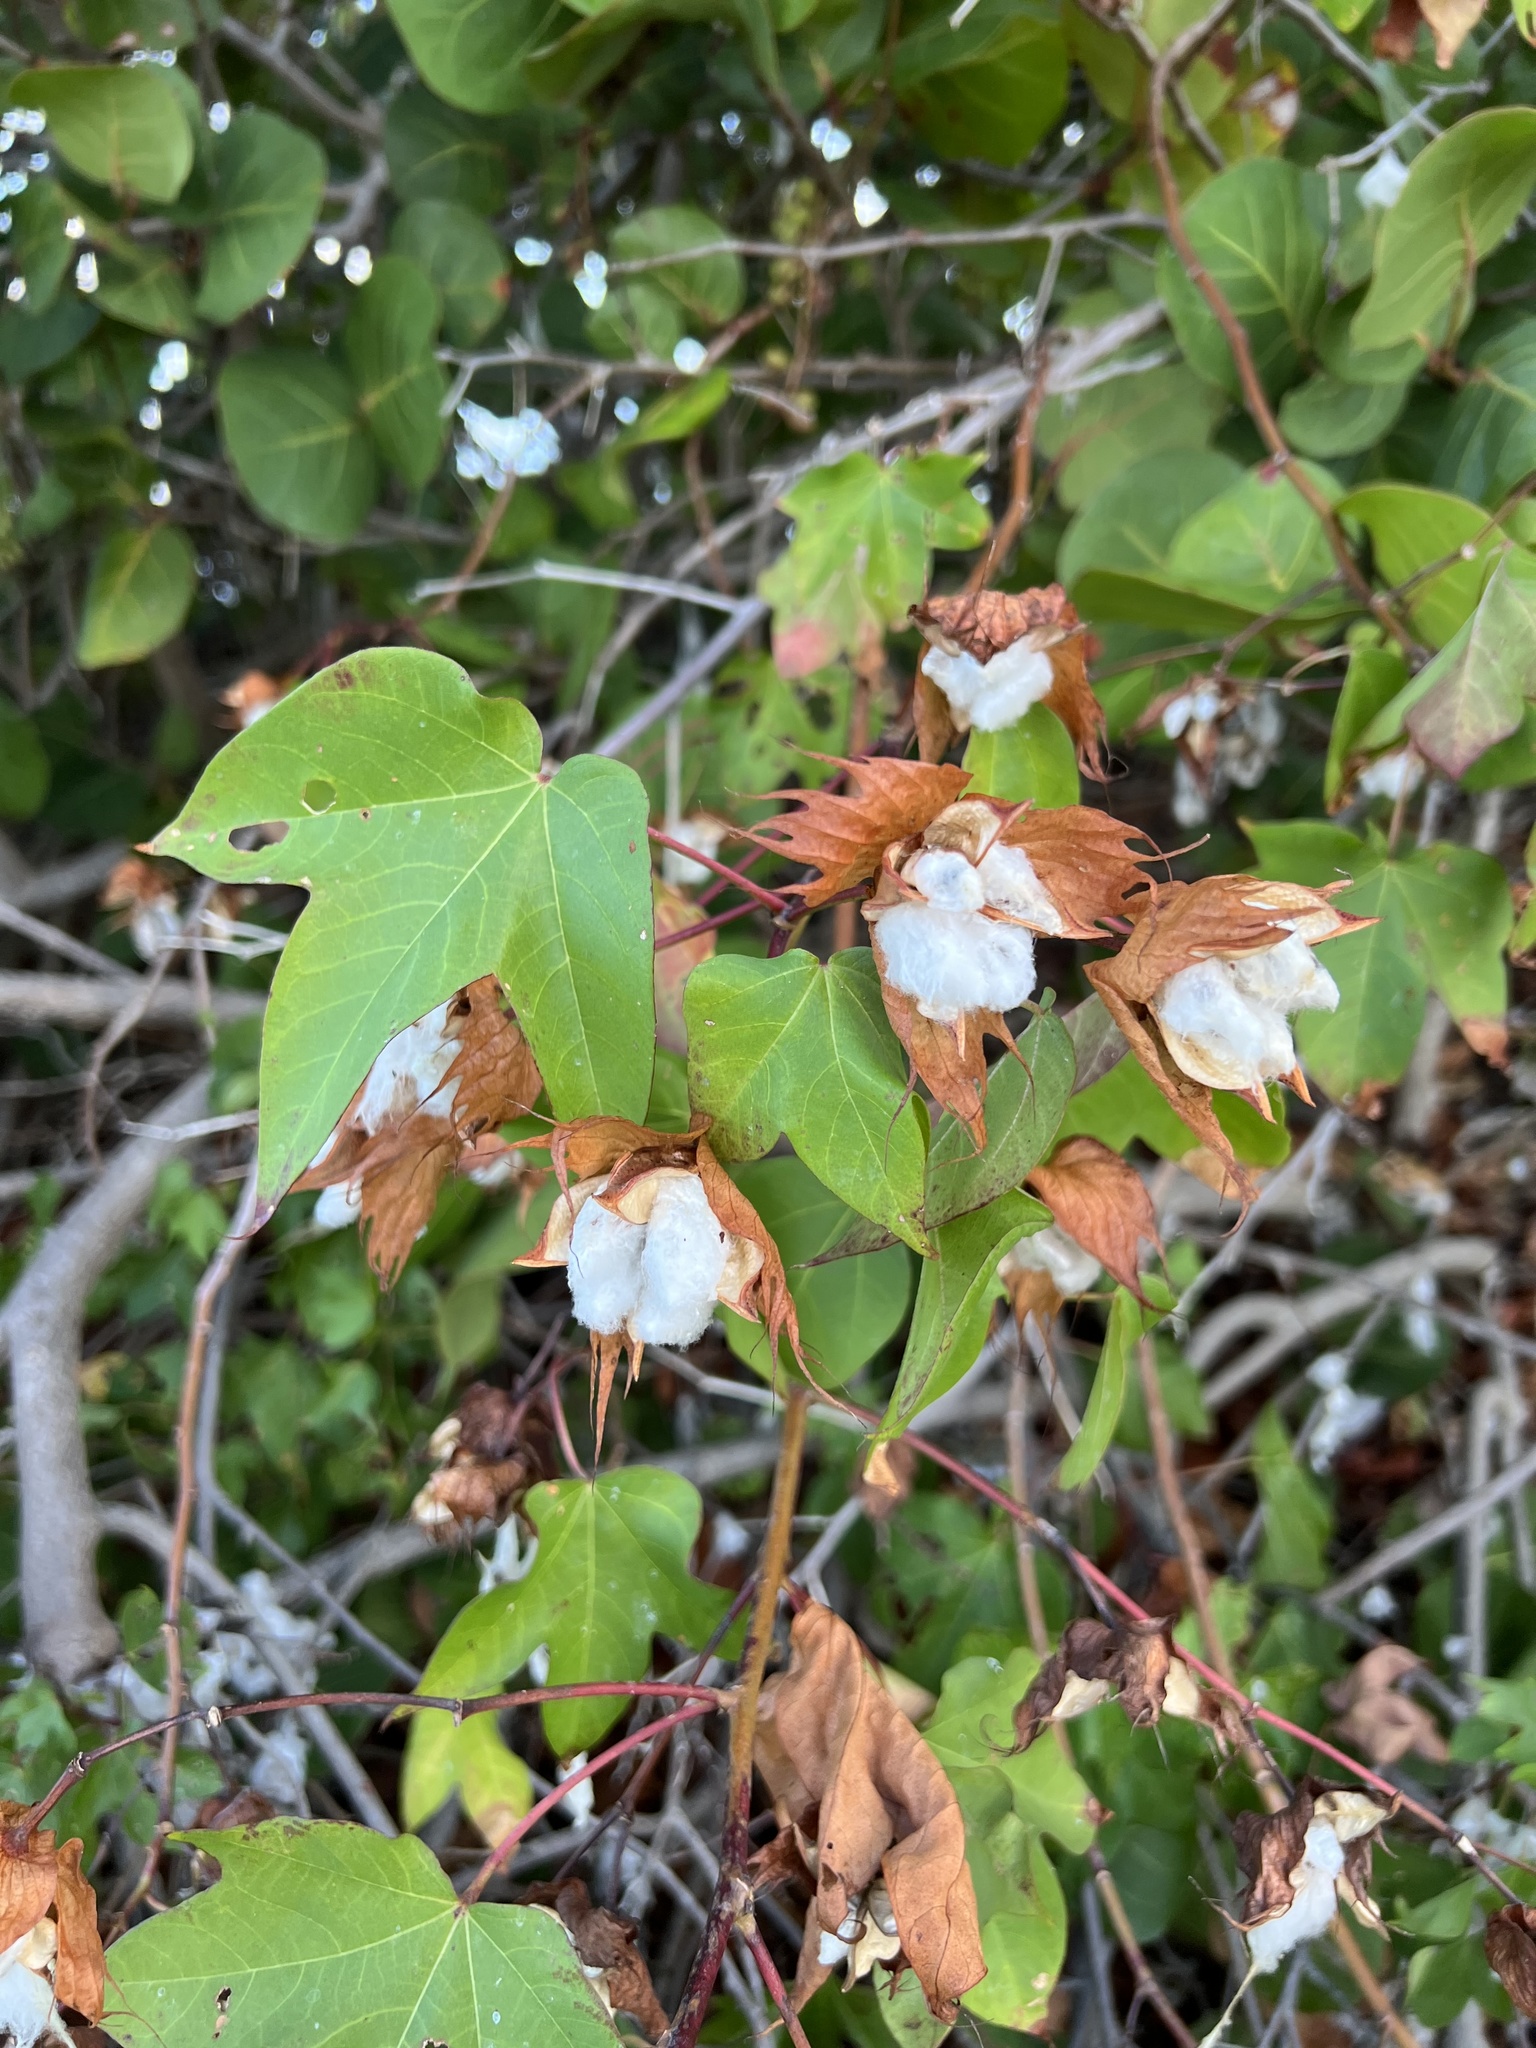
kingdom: Plantae
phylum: Tracheophyta
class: Magnoliopsida
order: Malvales
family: Malvaceae
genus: Gossypium
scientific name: Gossypium hirsutum
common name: Cotton
